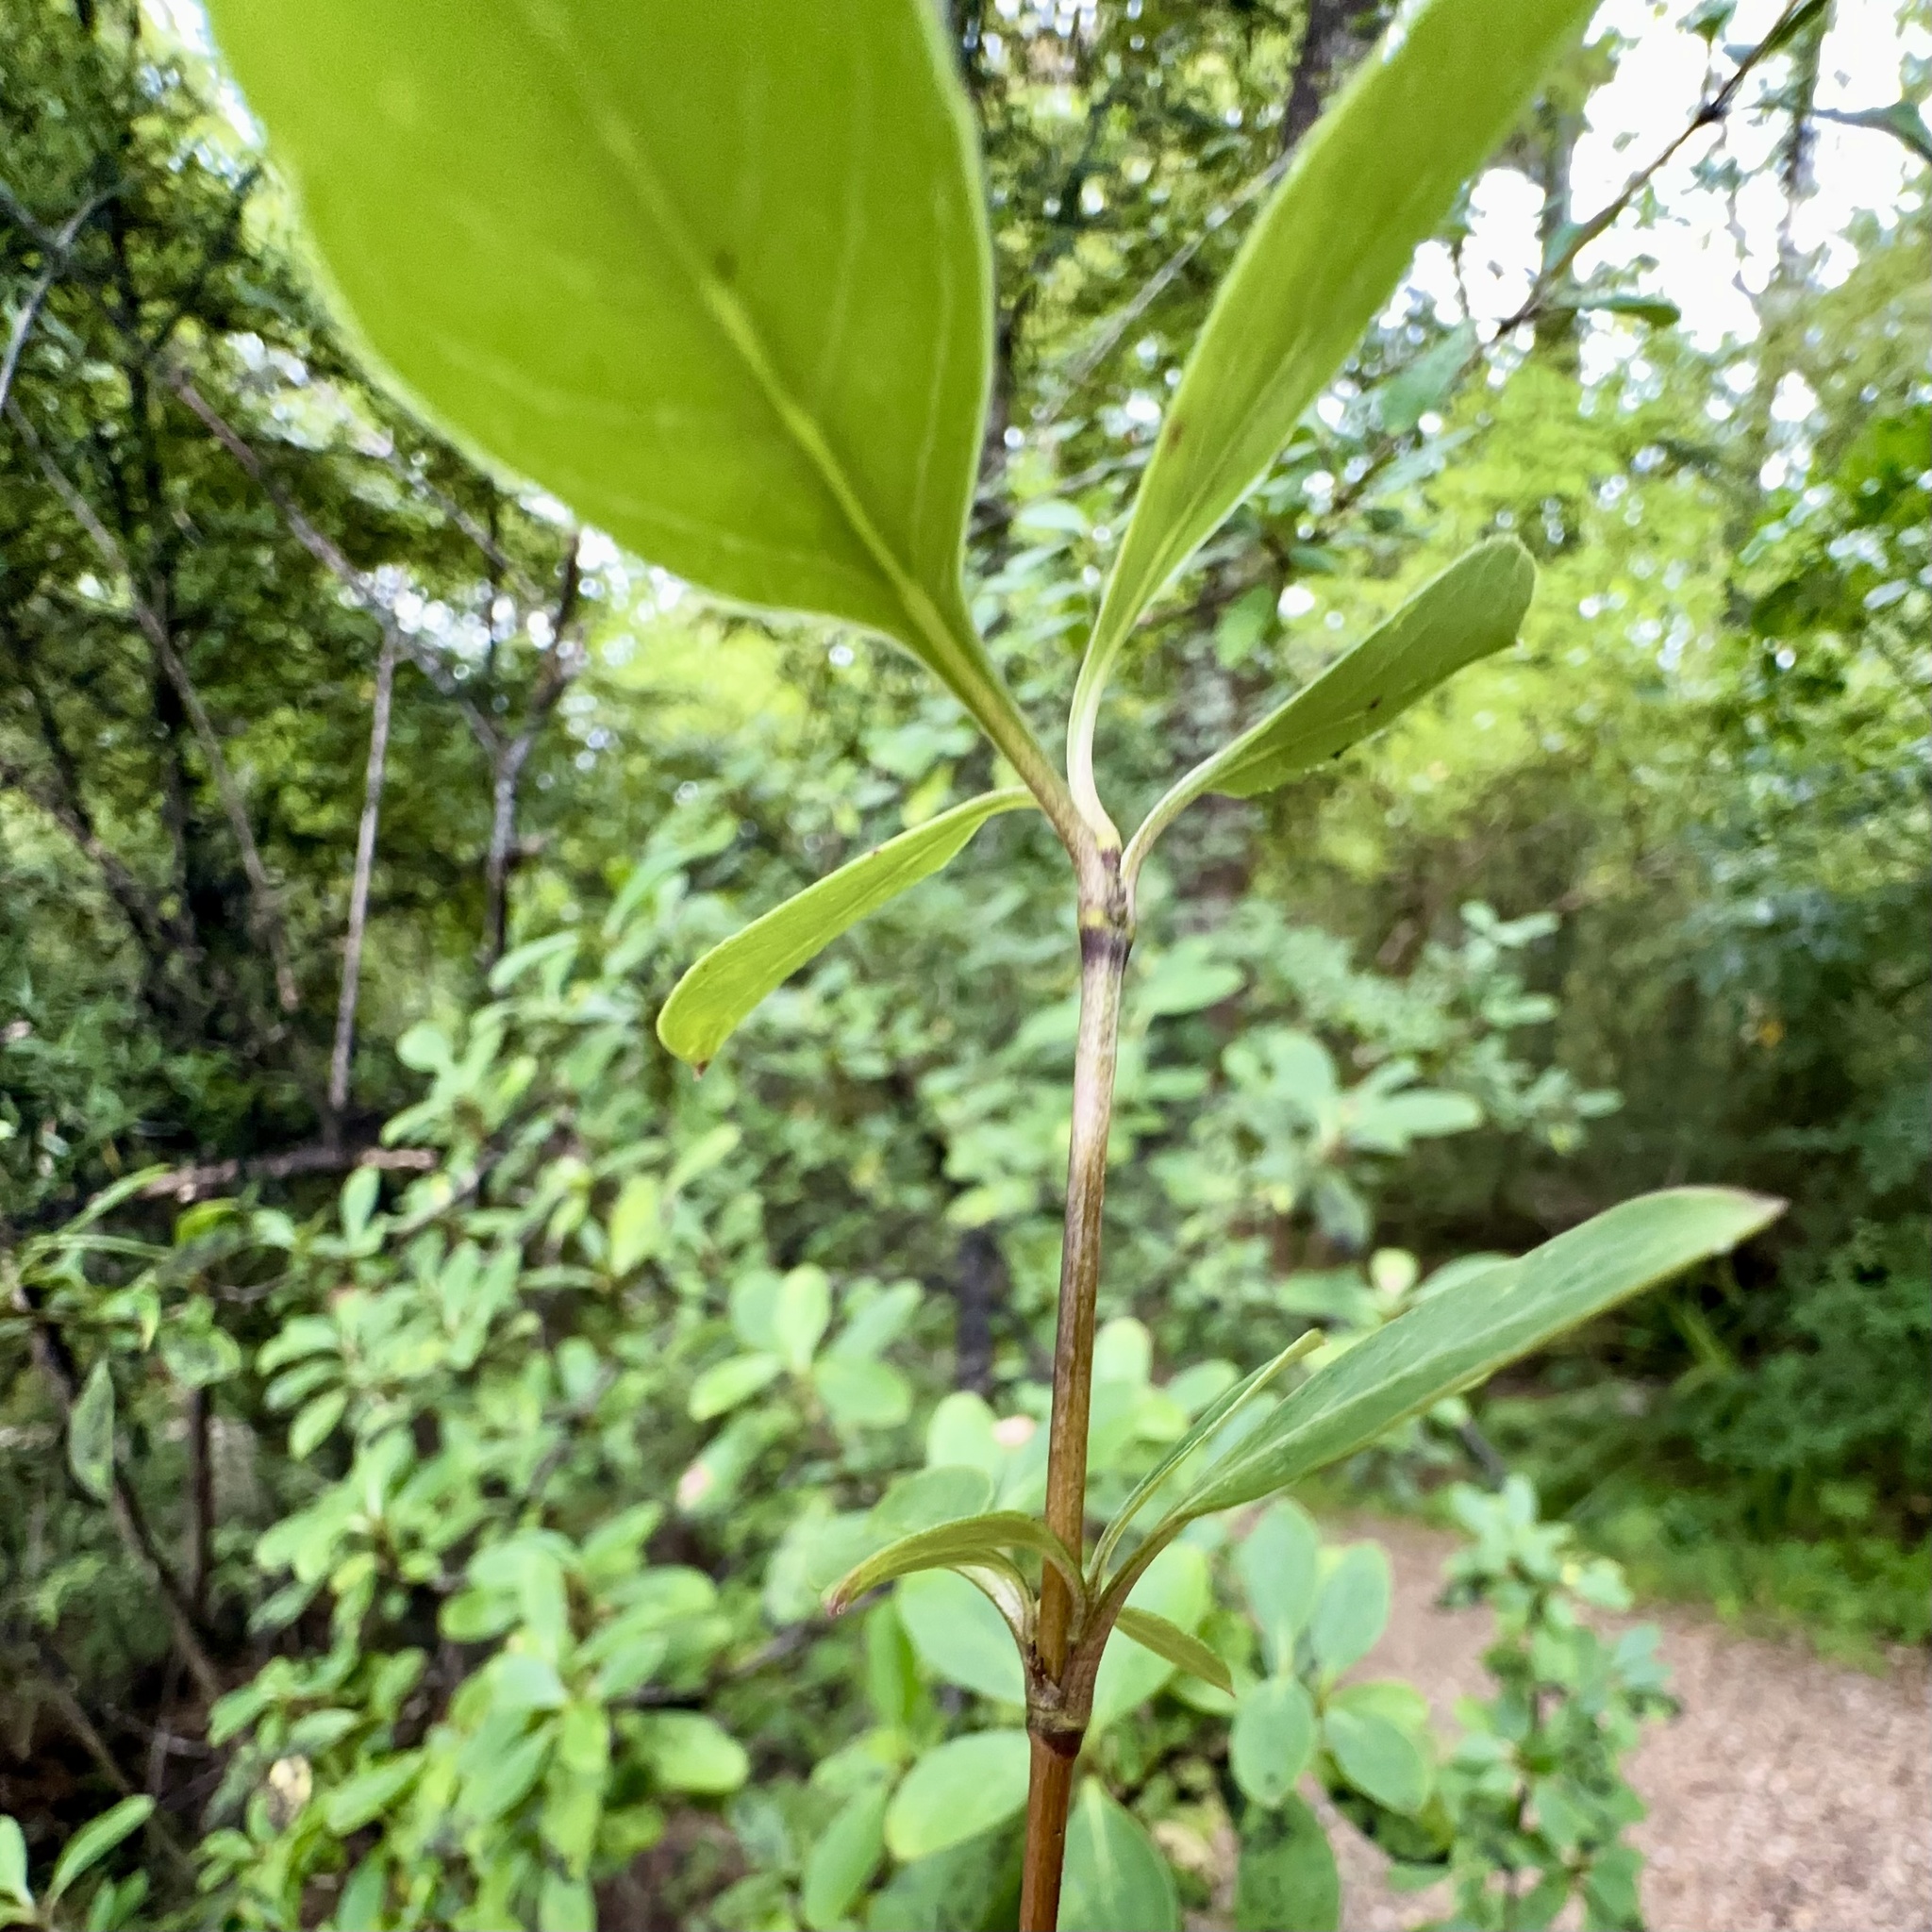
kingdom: Plantae
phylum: Tracheophyta
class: Magnoliopsida
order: Gentianales
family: Rubiaceae
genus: Coprosma
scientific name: Coprosma foetidissima
